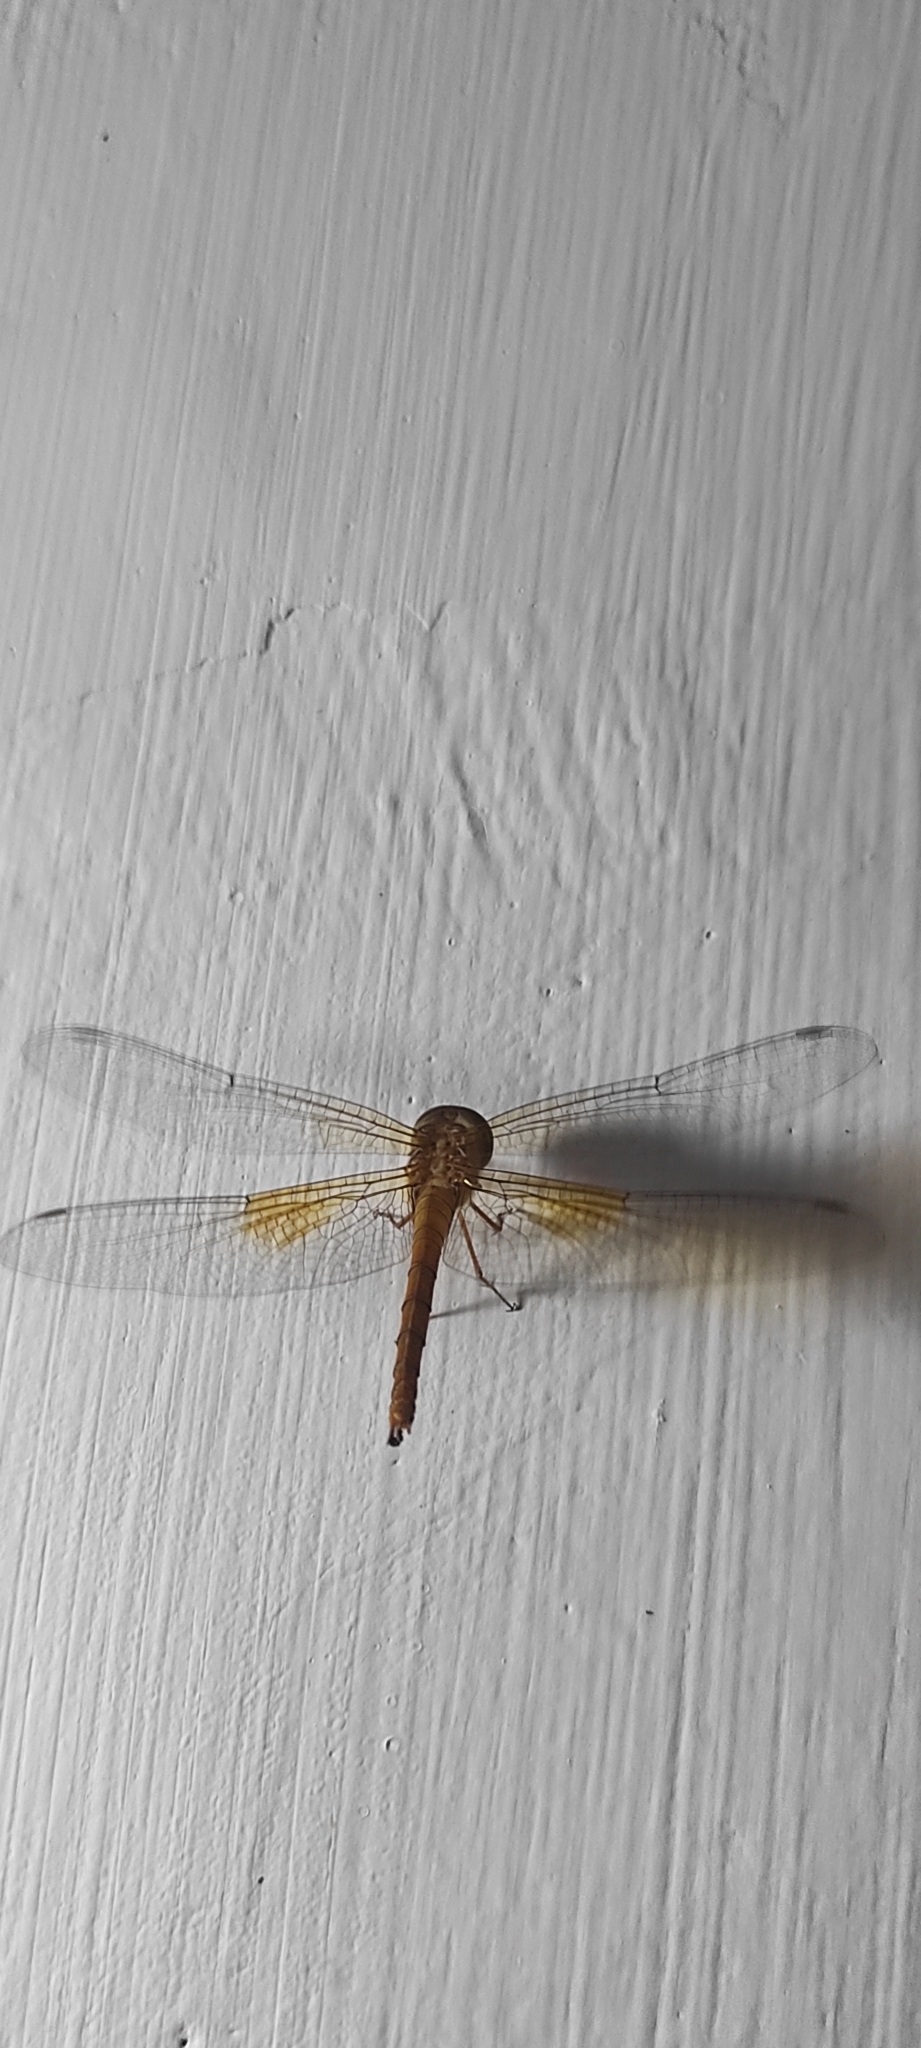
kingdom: Animalia
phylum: Arthropoda
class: Insecta
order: Odonata
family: Libellulidae
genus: Tholymis
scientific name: Tholymis tillarga
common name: Coral-tailed cloud wing
